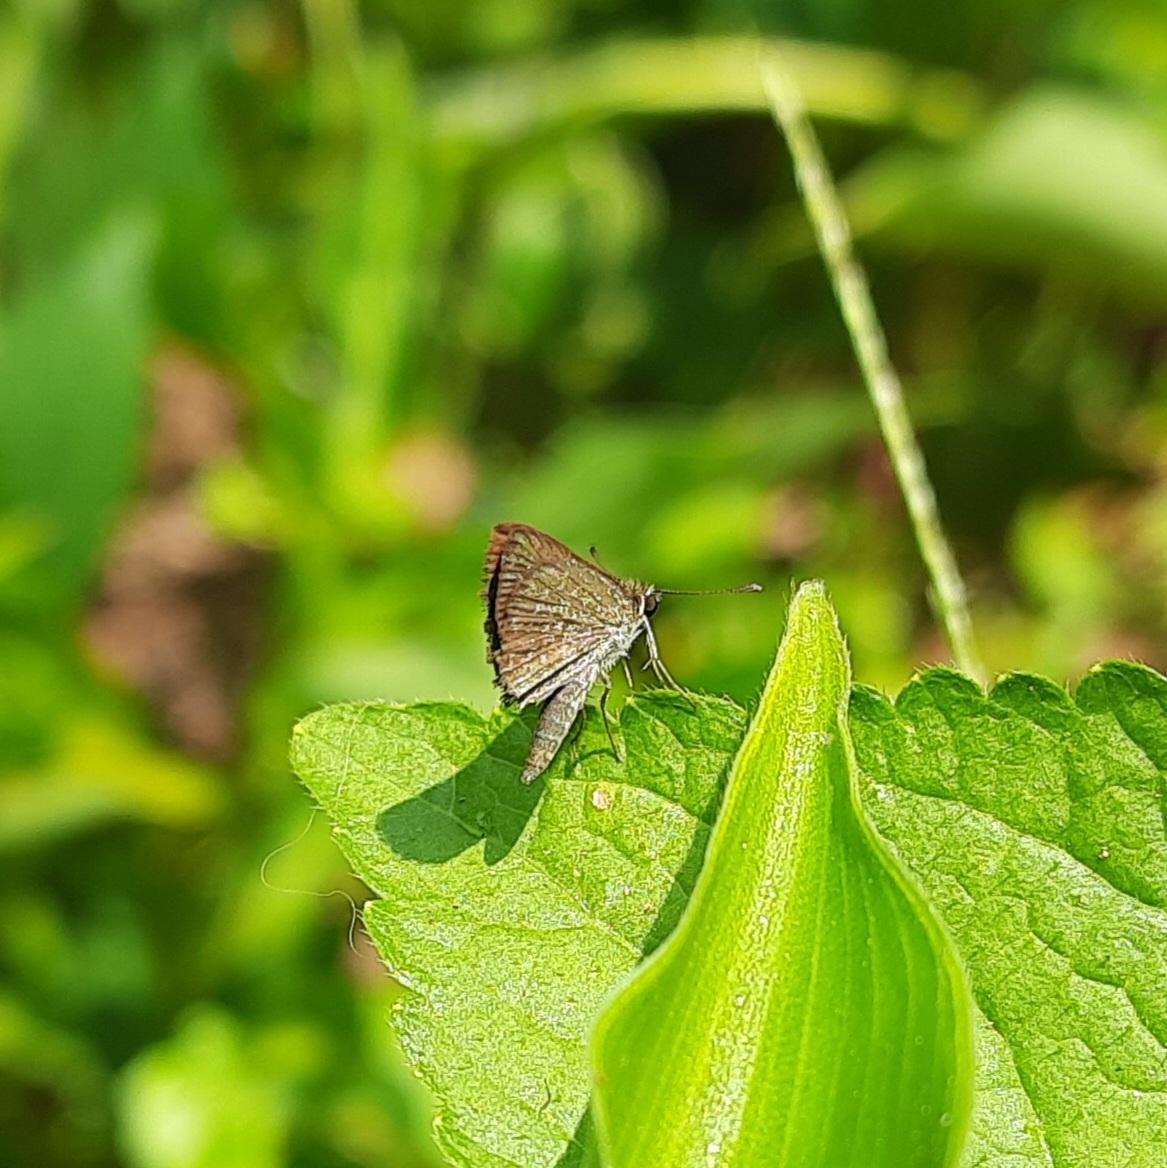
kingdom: Animalia
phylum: Arthropoda
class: Insecta
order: Lepidoptera
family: Hesperiidae
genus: Aeromachus
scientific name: Aeromachus pygmaeus
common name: Pygmy scrub hopper
